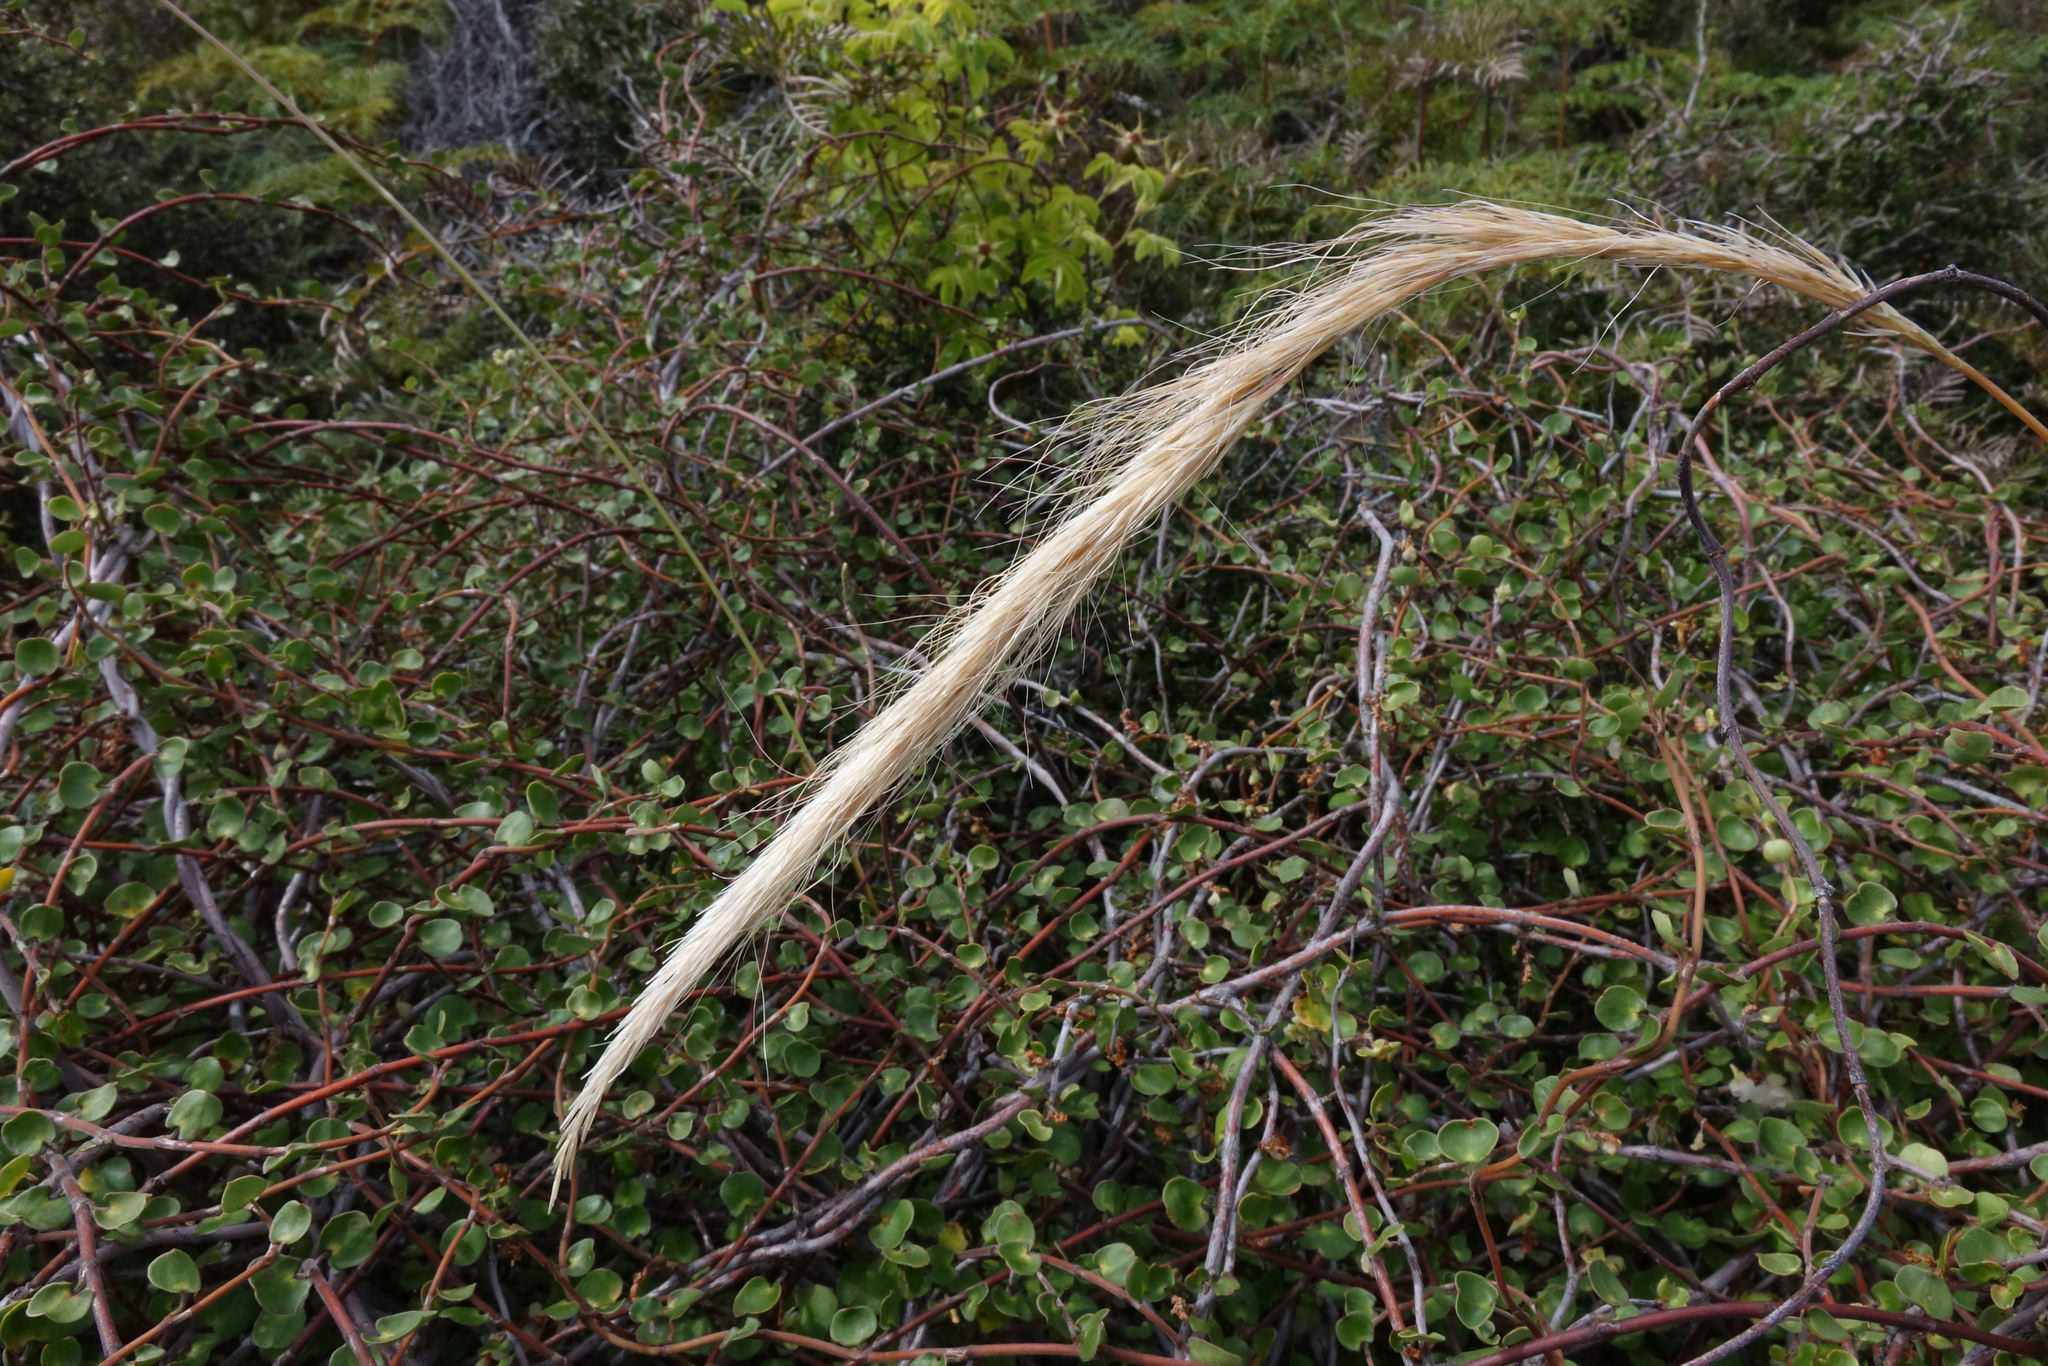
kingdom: Plantae
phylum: Tracheophyta
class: Liliopsida
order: Poales
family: Poaceae
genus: Dichelachne
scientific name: Dichelachne crinita
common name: Clovenfoot plumegrass
